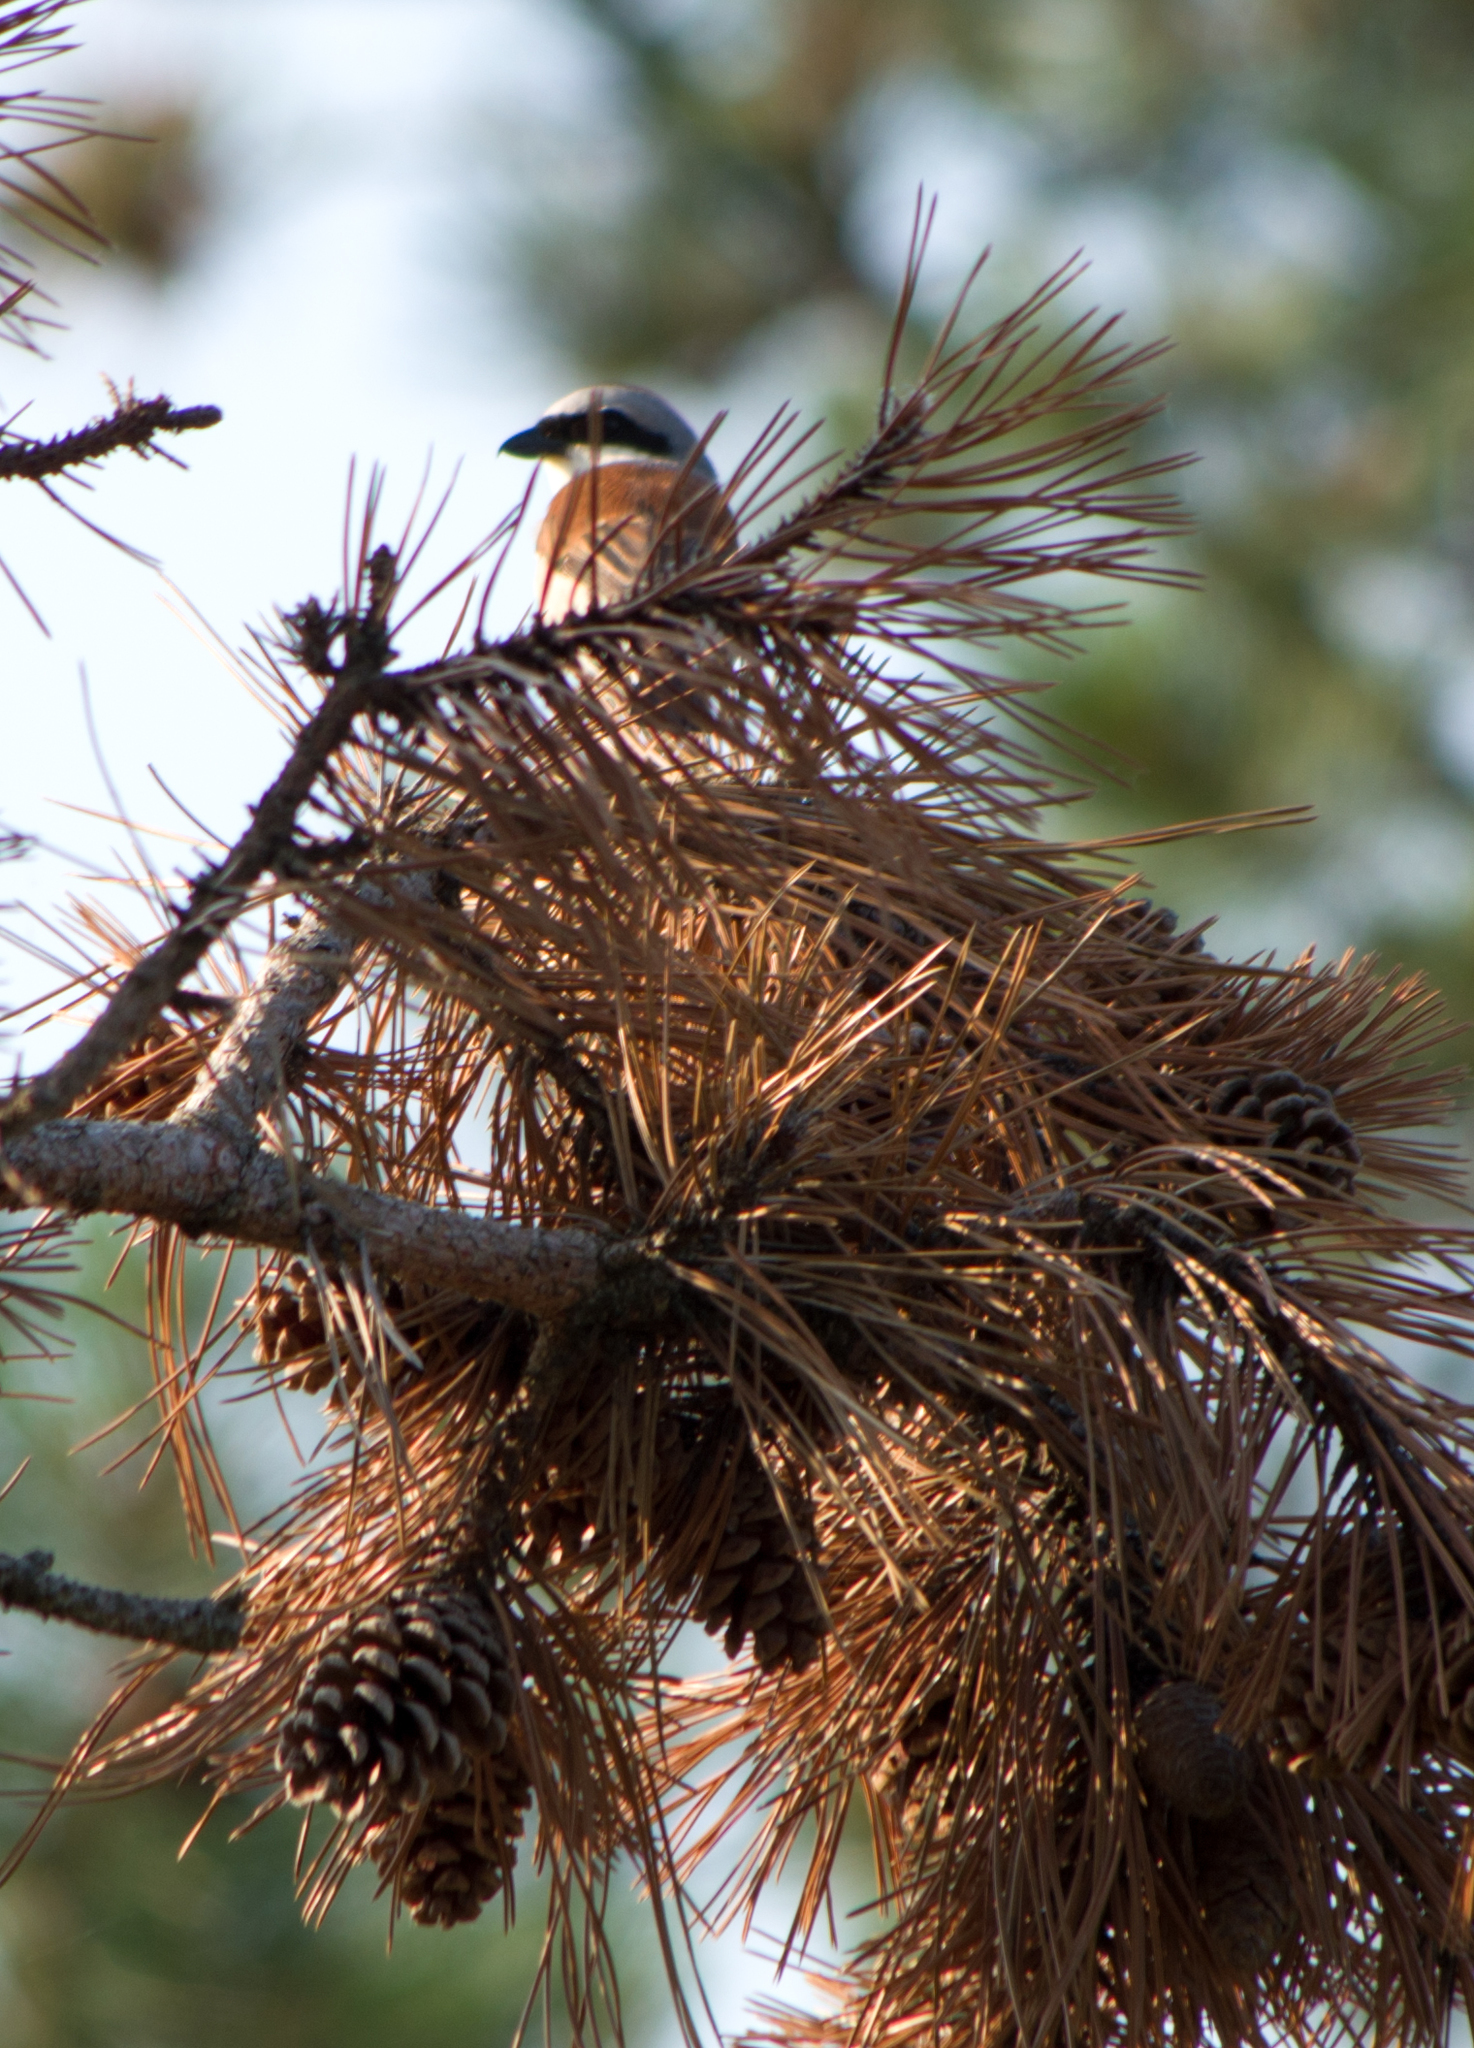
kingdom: Animalia
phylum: Chordata
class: Aves
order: Passeriformes
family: Laniidae
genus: Lanius
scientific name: Lanius collurio
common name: Red-backed shrike
